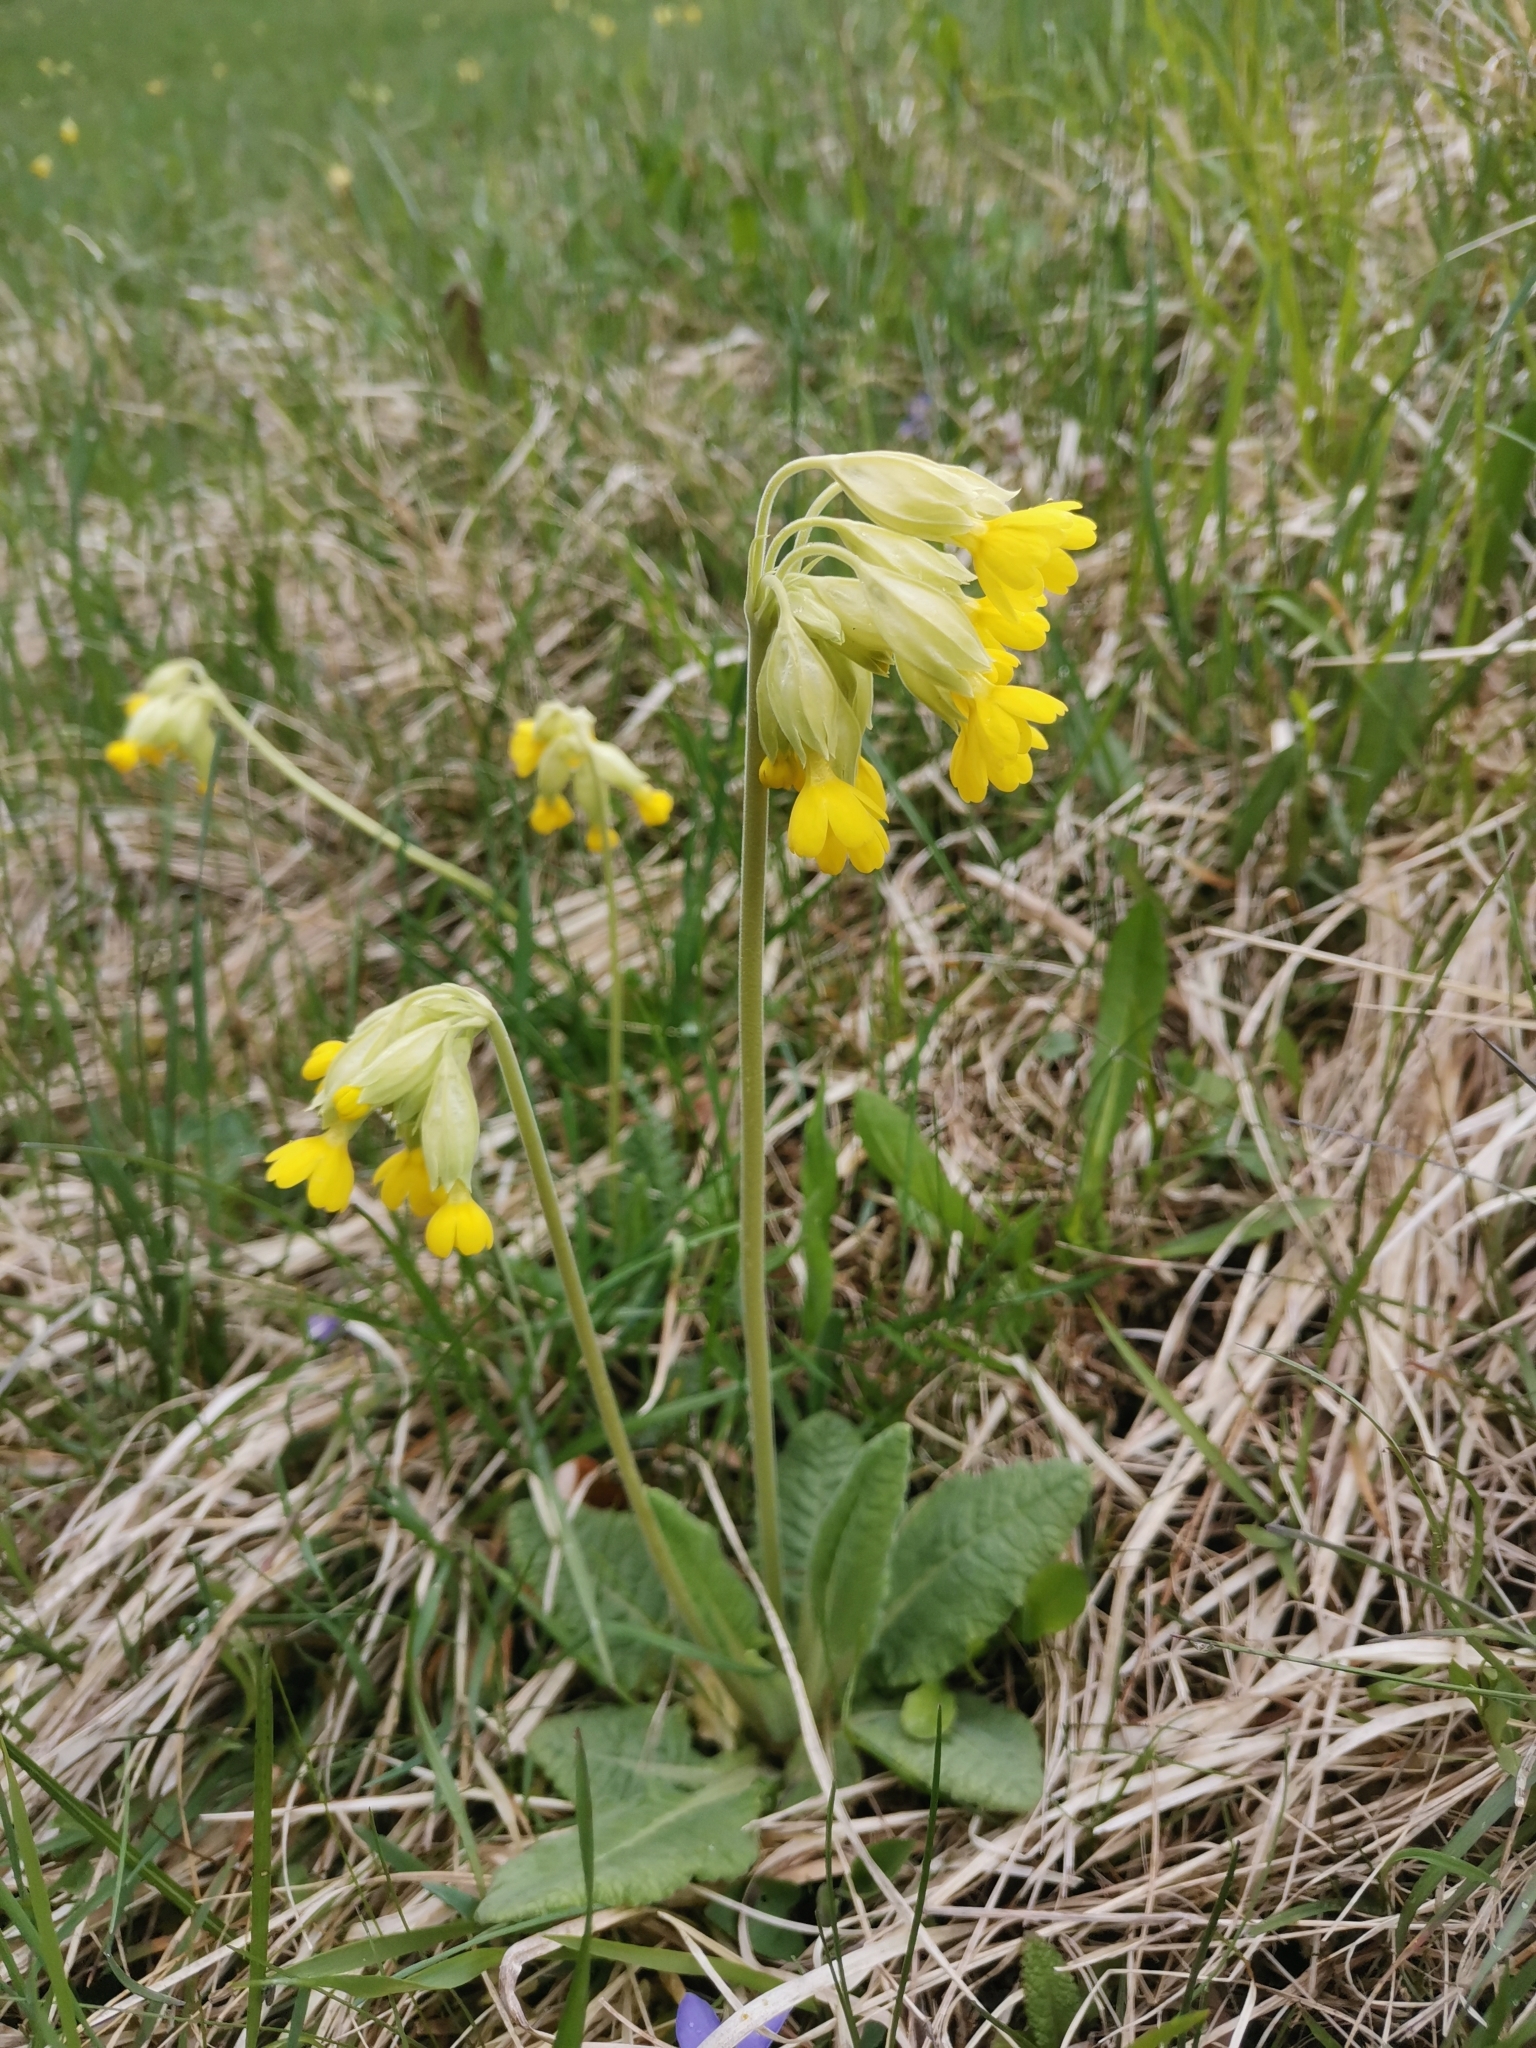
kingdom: Plantae
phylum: Tracheophyta
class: Magnoliopsida
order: Ericales
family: Primulaceae
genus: Primula
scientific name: Primula veris
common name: Cowslip
